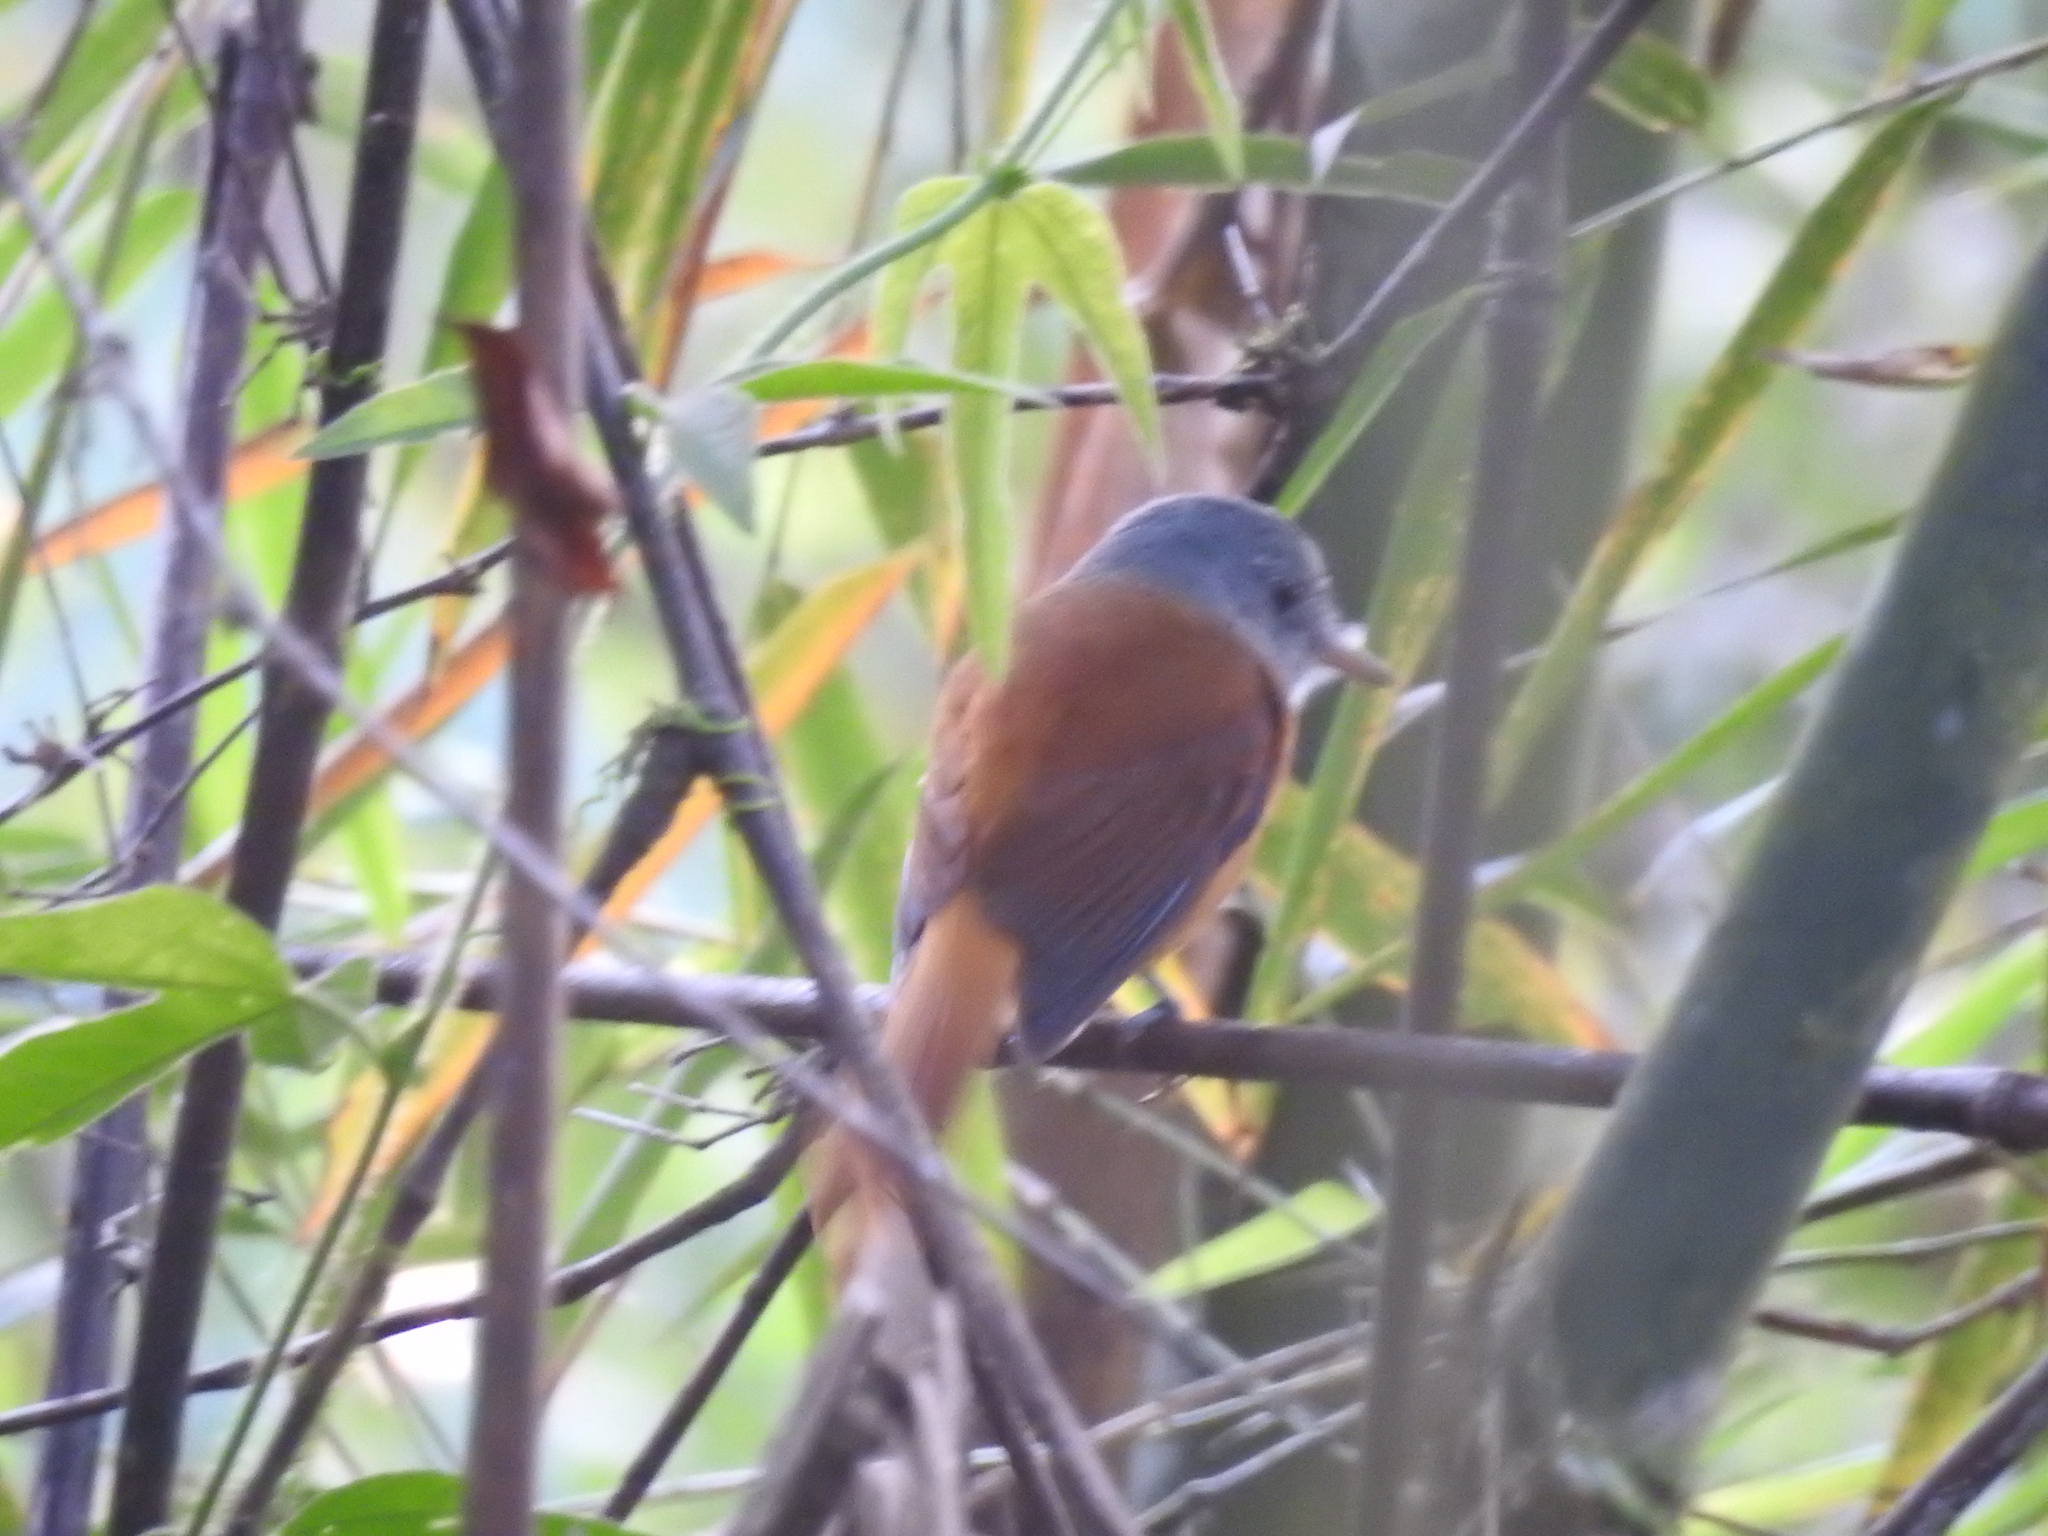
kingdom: Animalia
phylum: Chordata
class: Aves
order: Passeriformes
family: Tyrannidae
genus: Attila
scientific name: Attila rufus
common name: Grey-hooded attila
